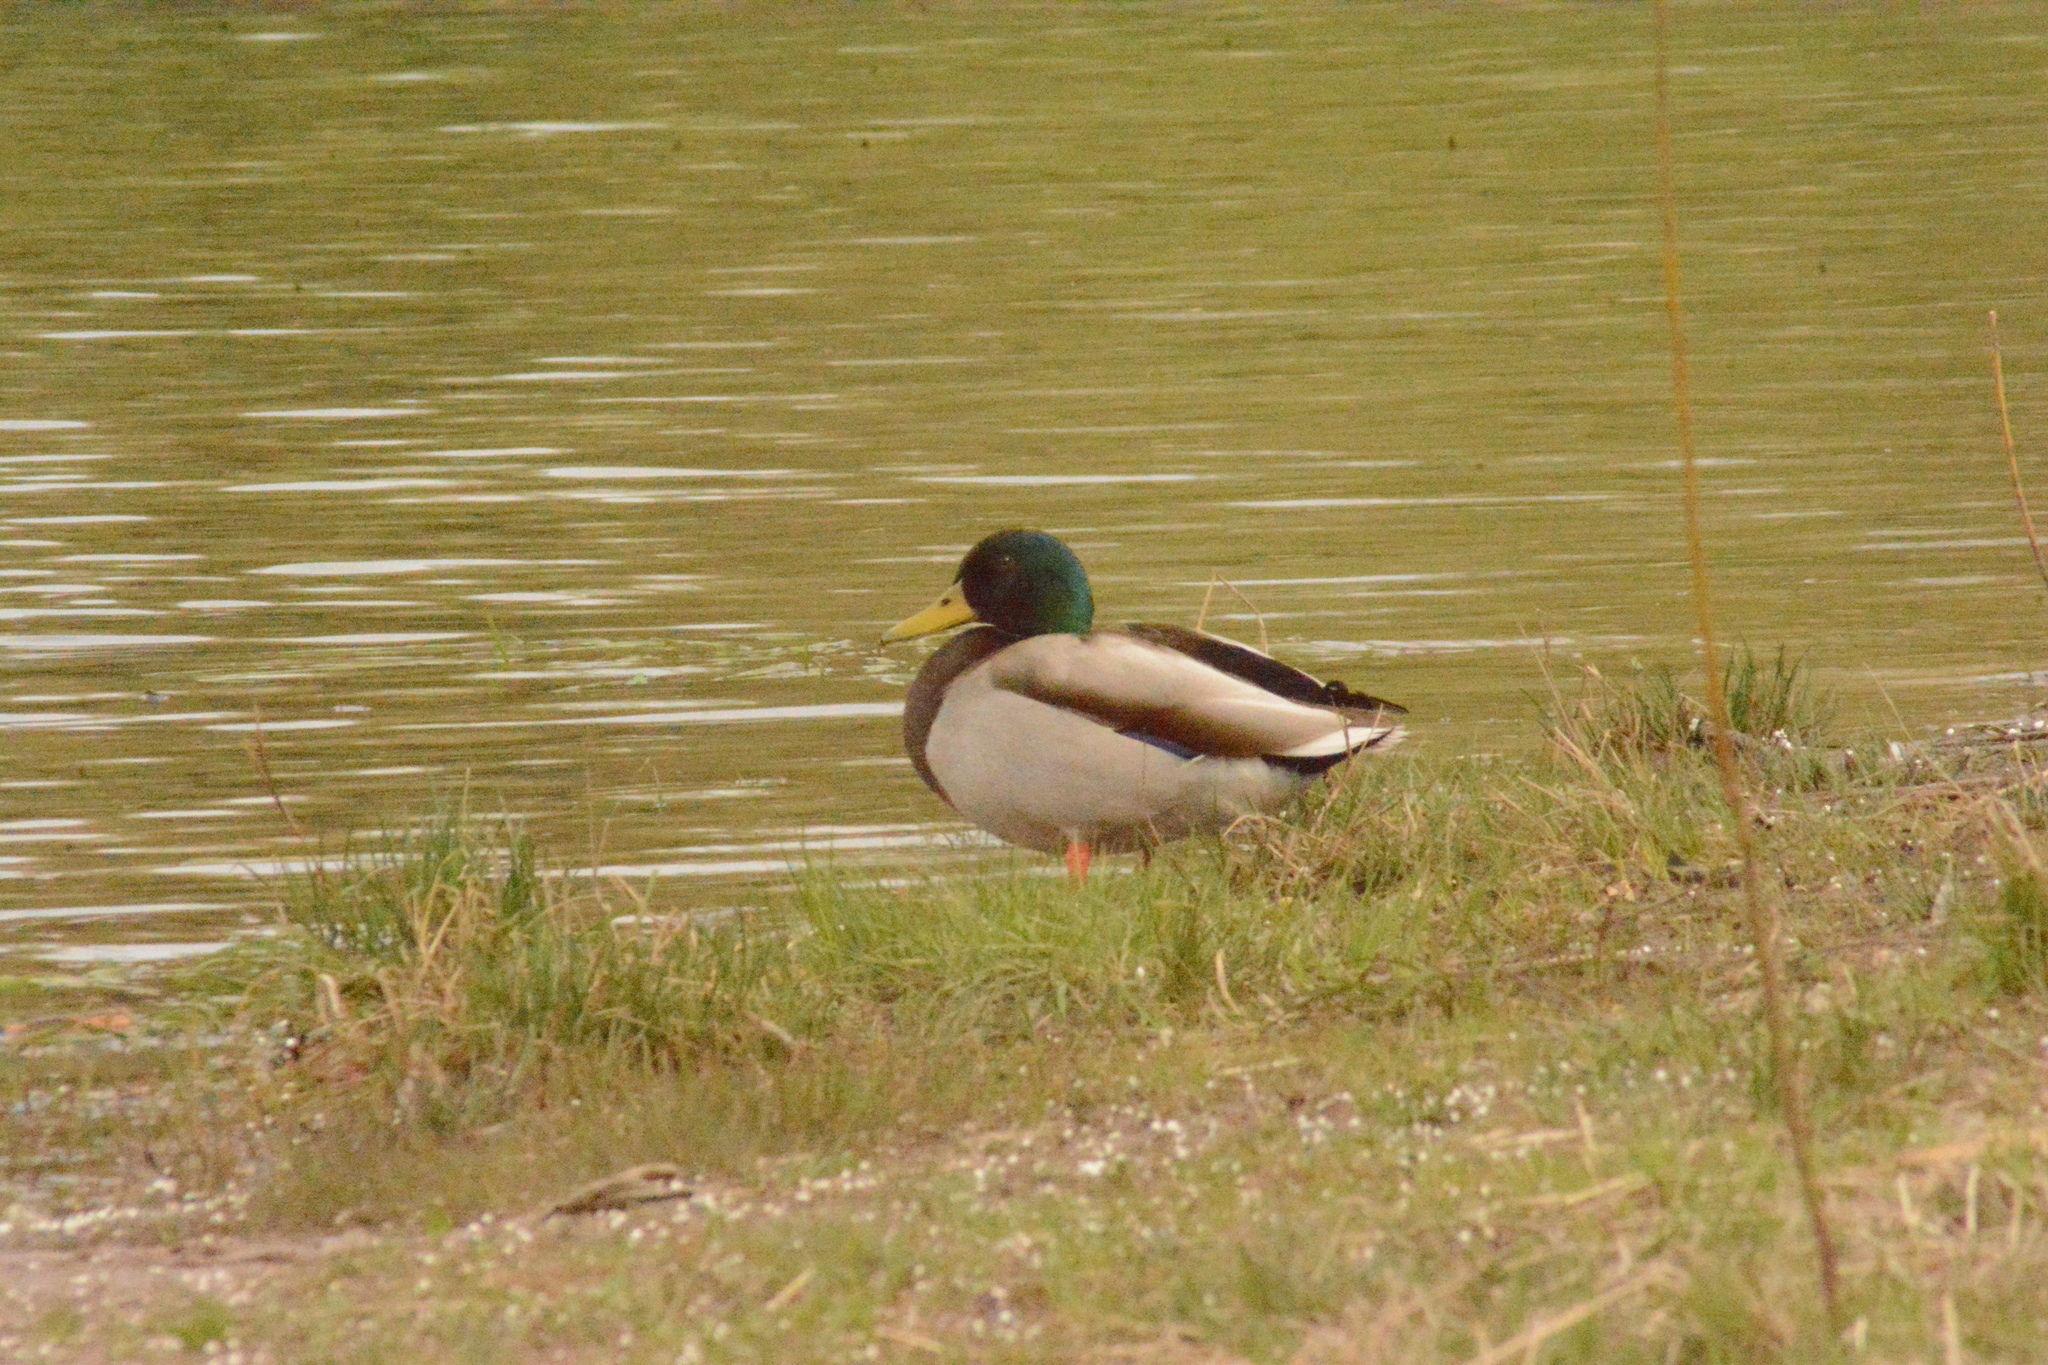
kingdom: Animalia
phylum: Chordata
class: Aves
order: Anseriformes
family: Anatidae
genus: Anas
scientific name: Anas platyrhynchos
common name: Mallard
